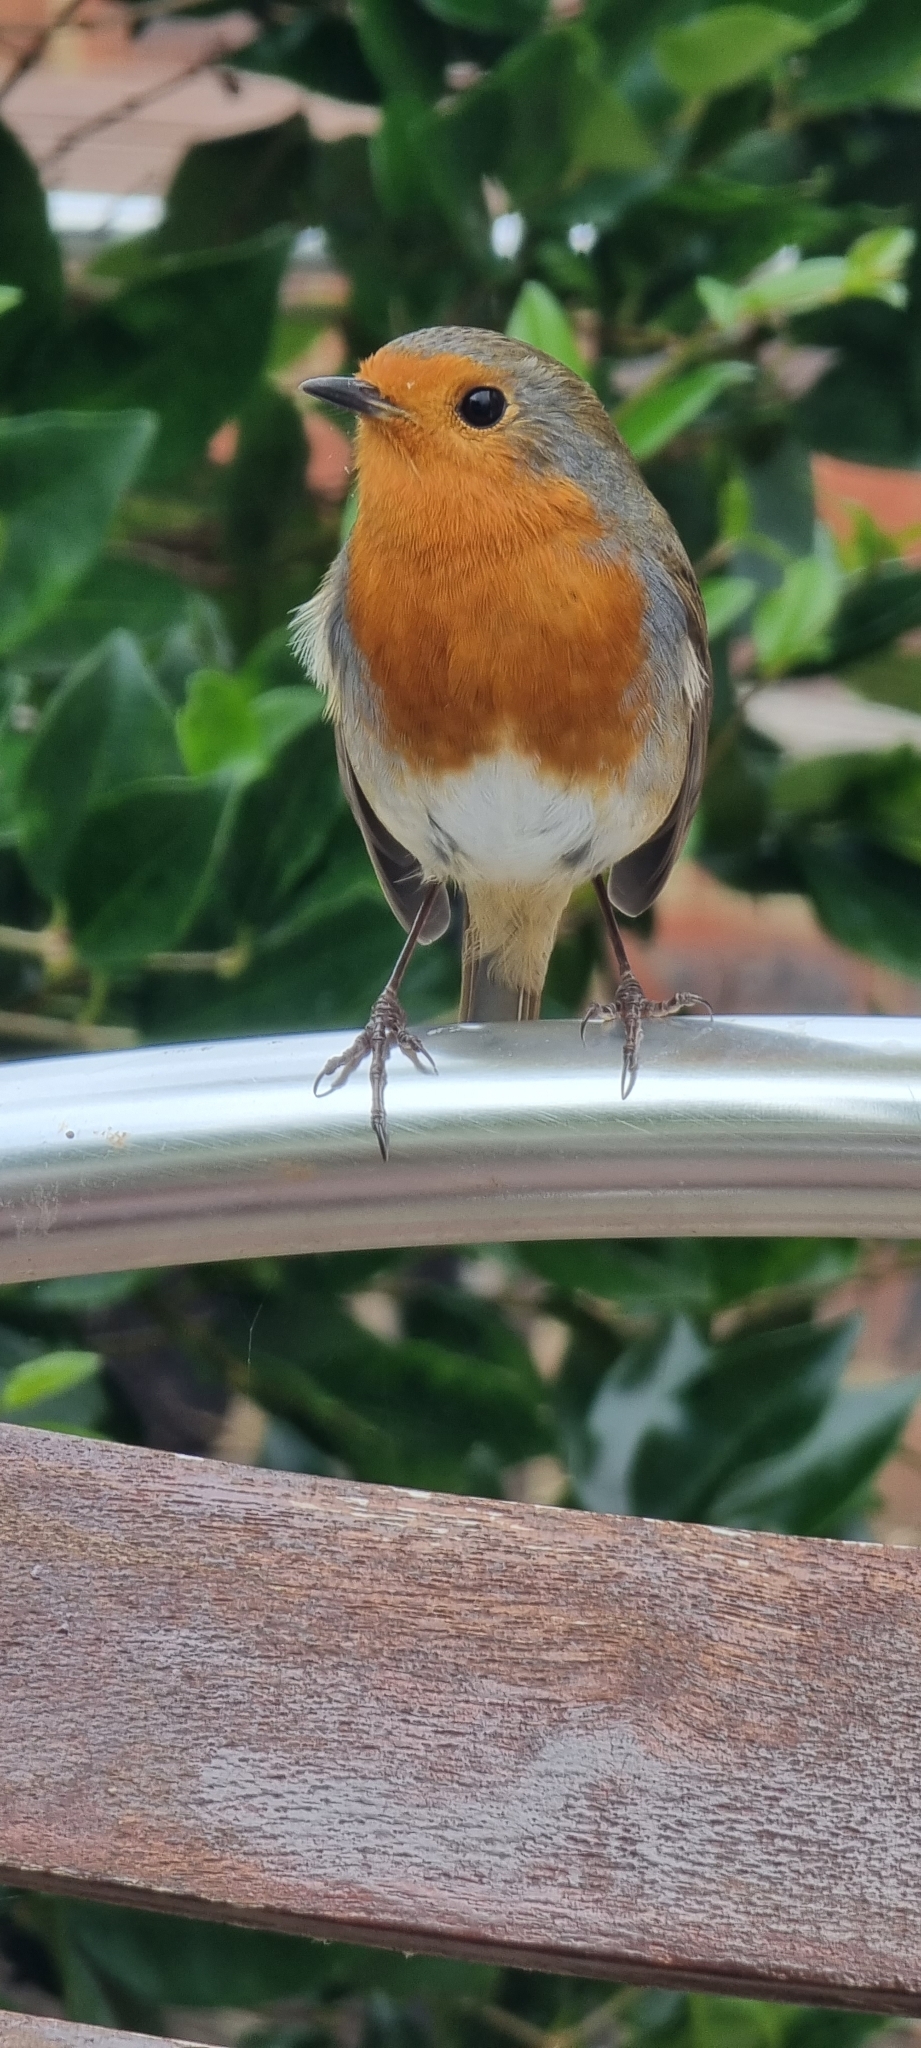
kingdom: Animalia
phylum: Chordata
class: Aves
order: Passeriformes
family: Muscicapidae
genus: Erithacus
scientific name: Erithacus rubecula
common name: European robin
